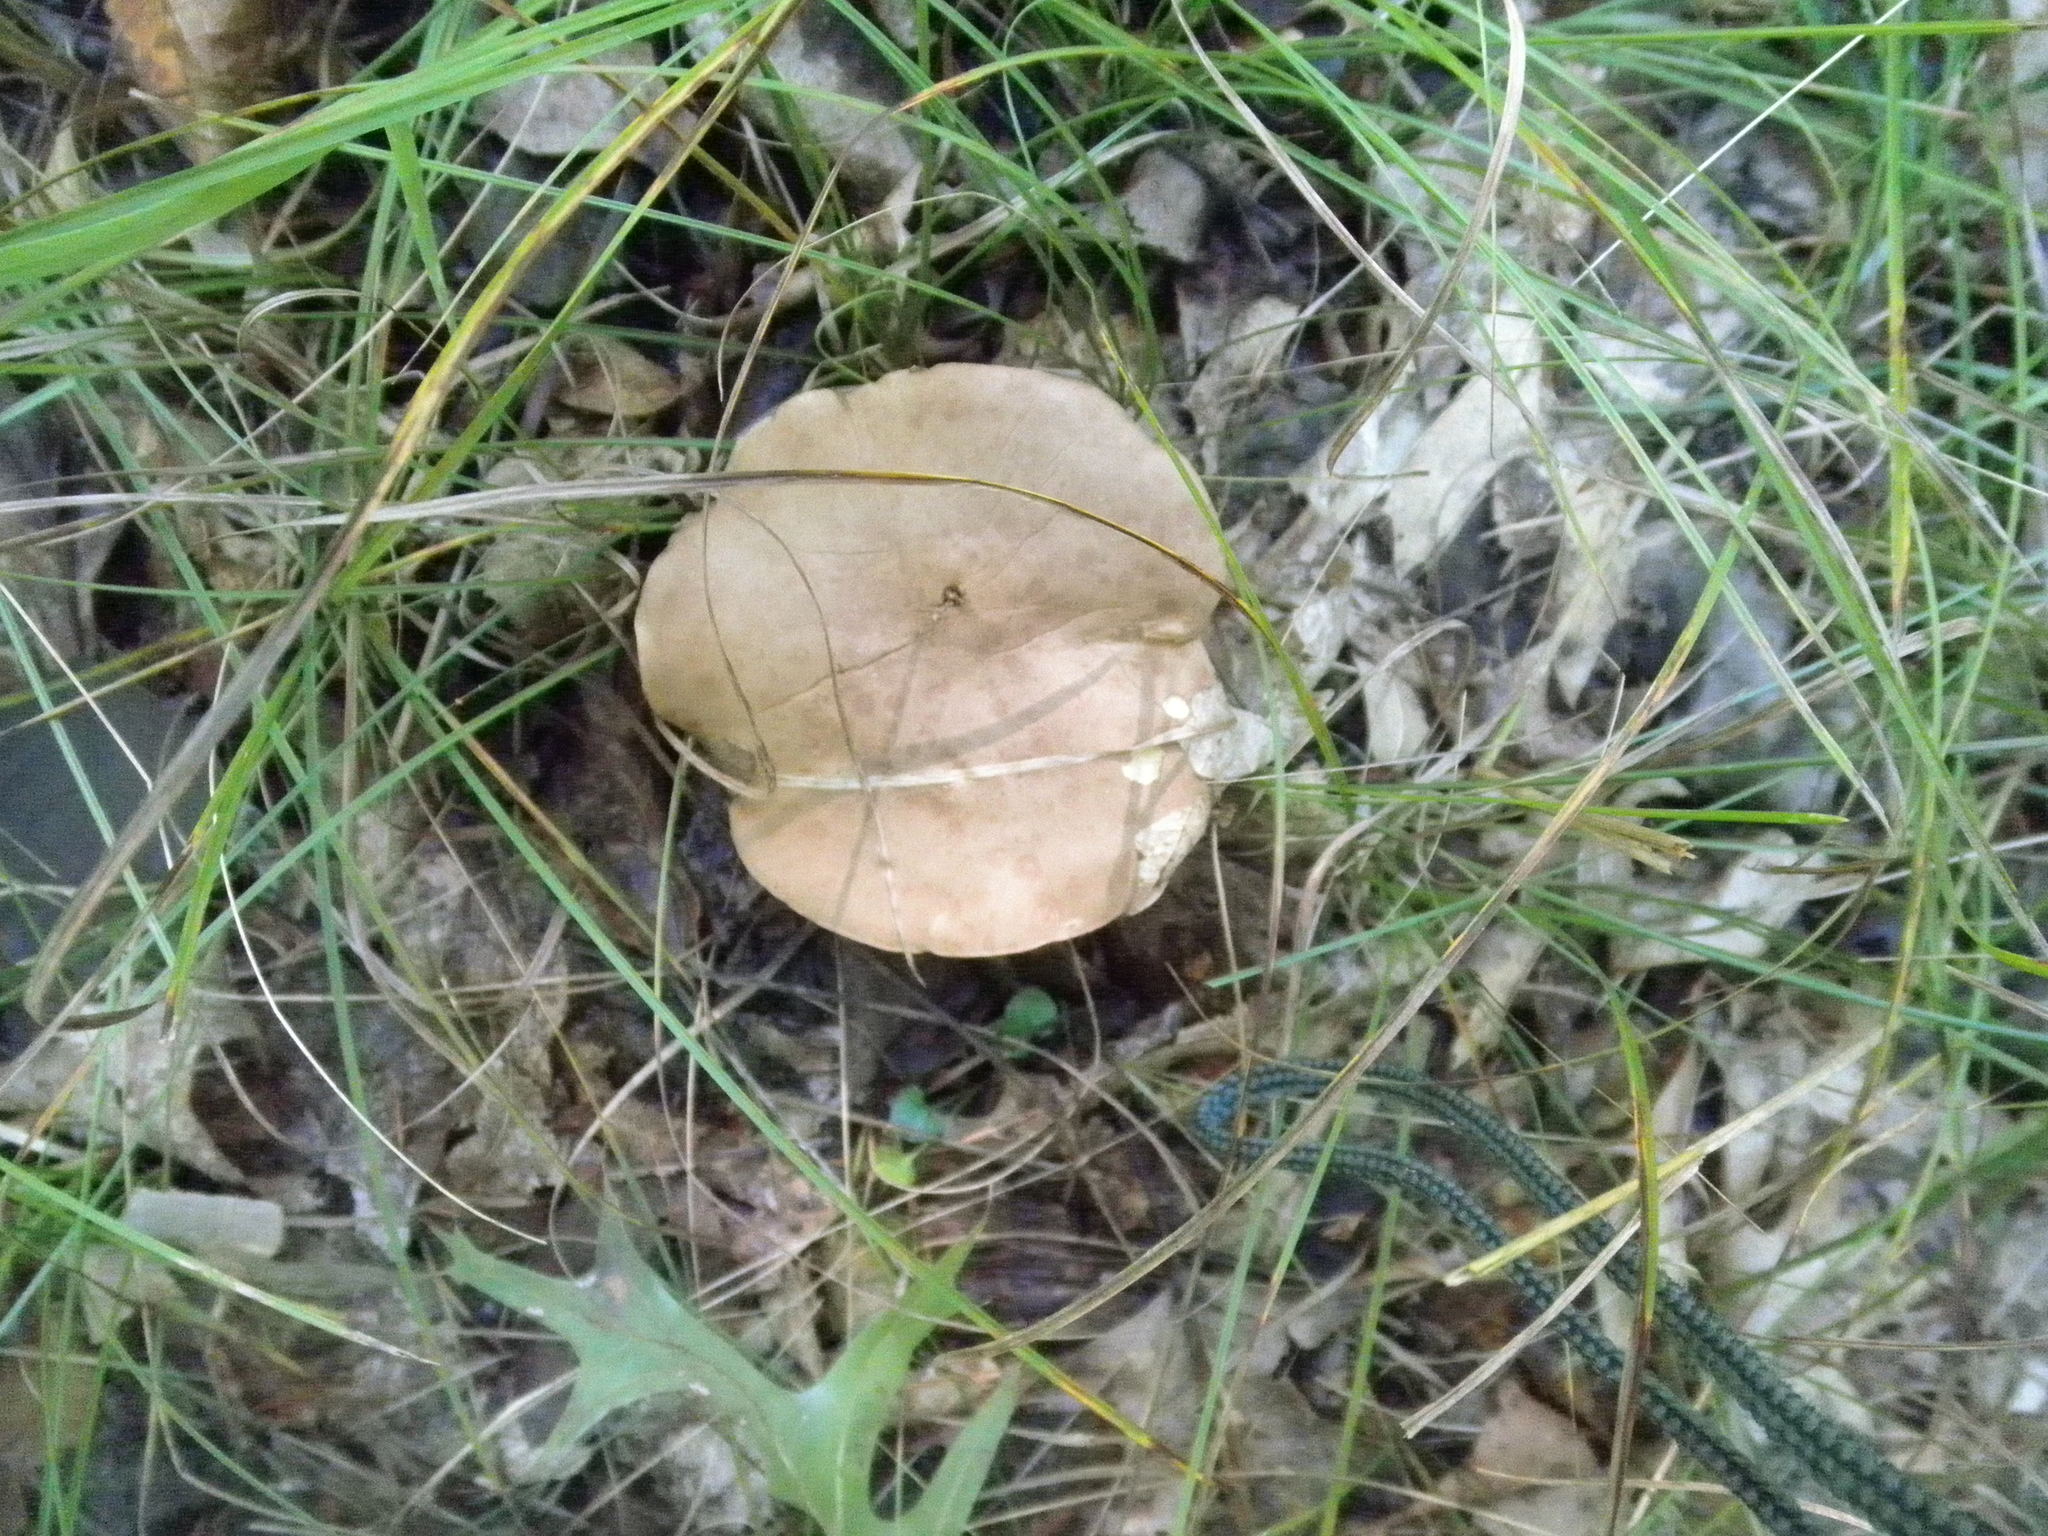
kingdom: Fungi
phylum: Basidiomycota
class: Agaricomycetes
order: Boletales
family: Boletaceae
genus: Imleria
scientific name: Imleria pallida
